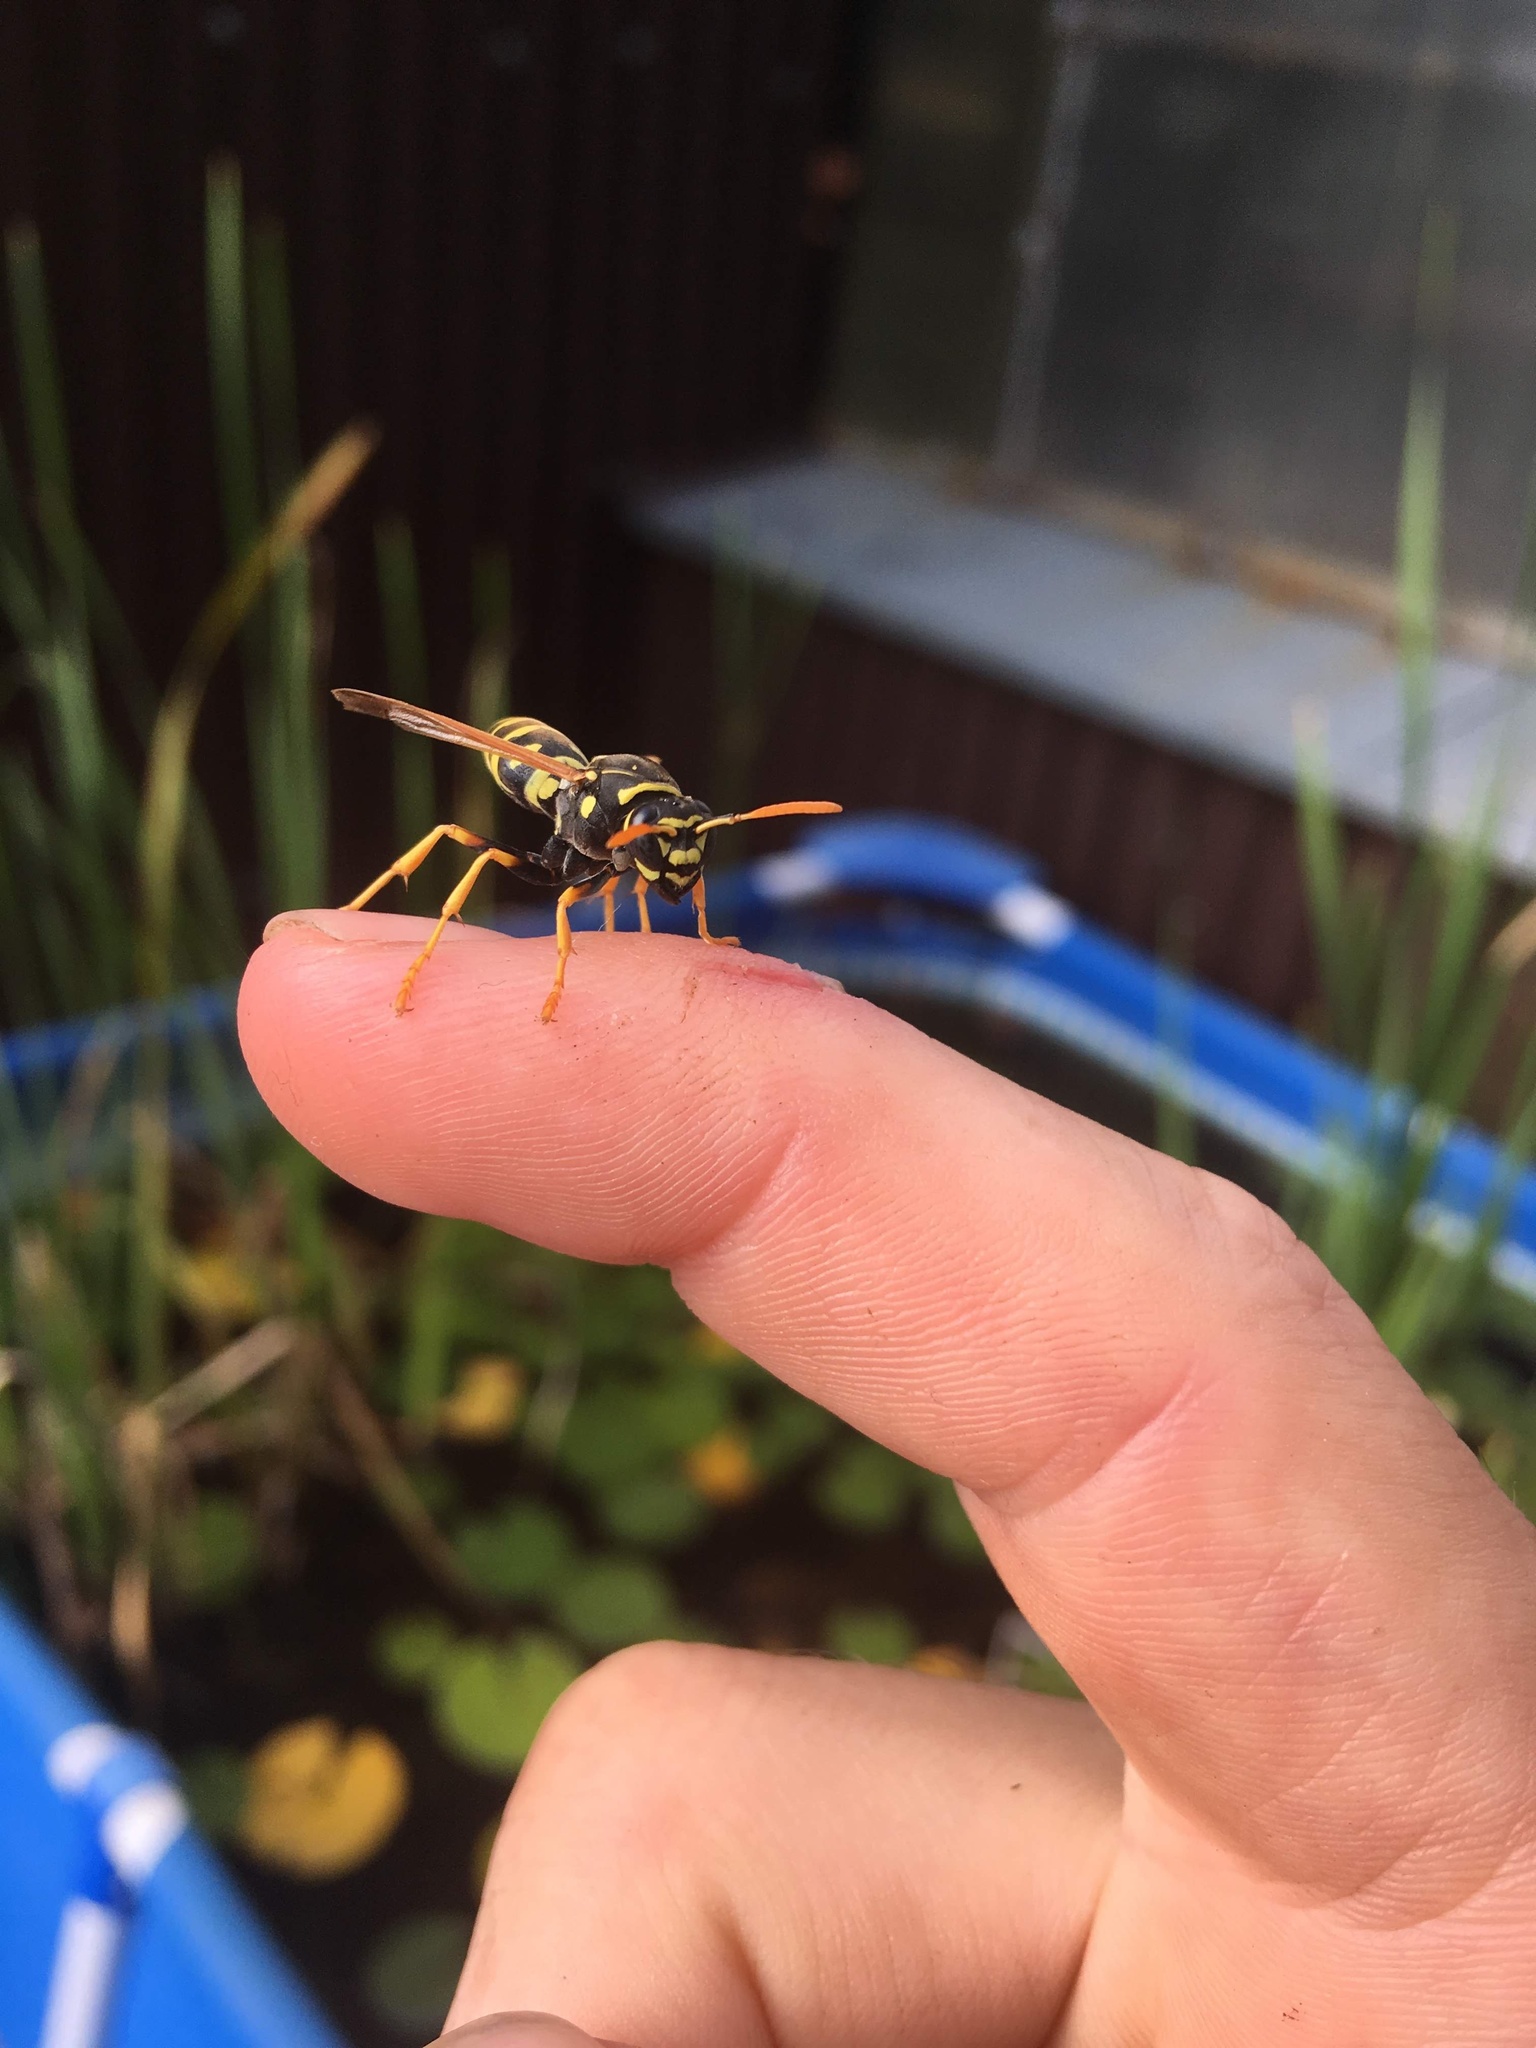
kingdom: Animalia
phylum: Arthropoda
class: Insecta
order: Hymenoptera
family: Eumenidae
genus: Polistes
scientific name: Polistes dominula
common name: Paper wasp
